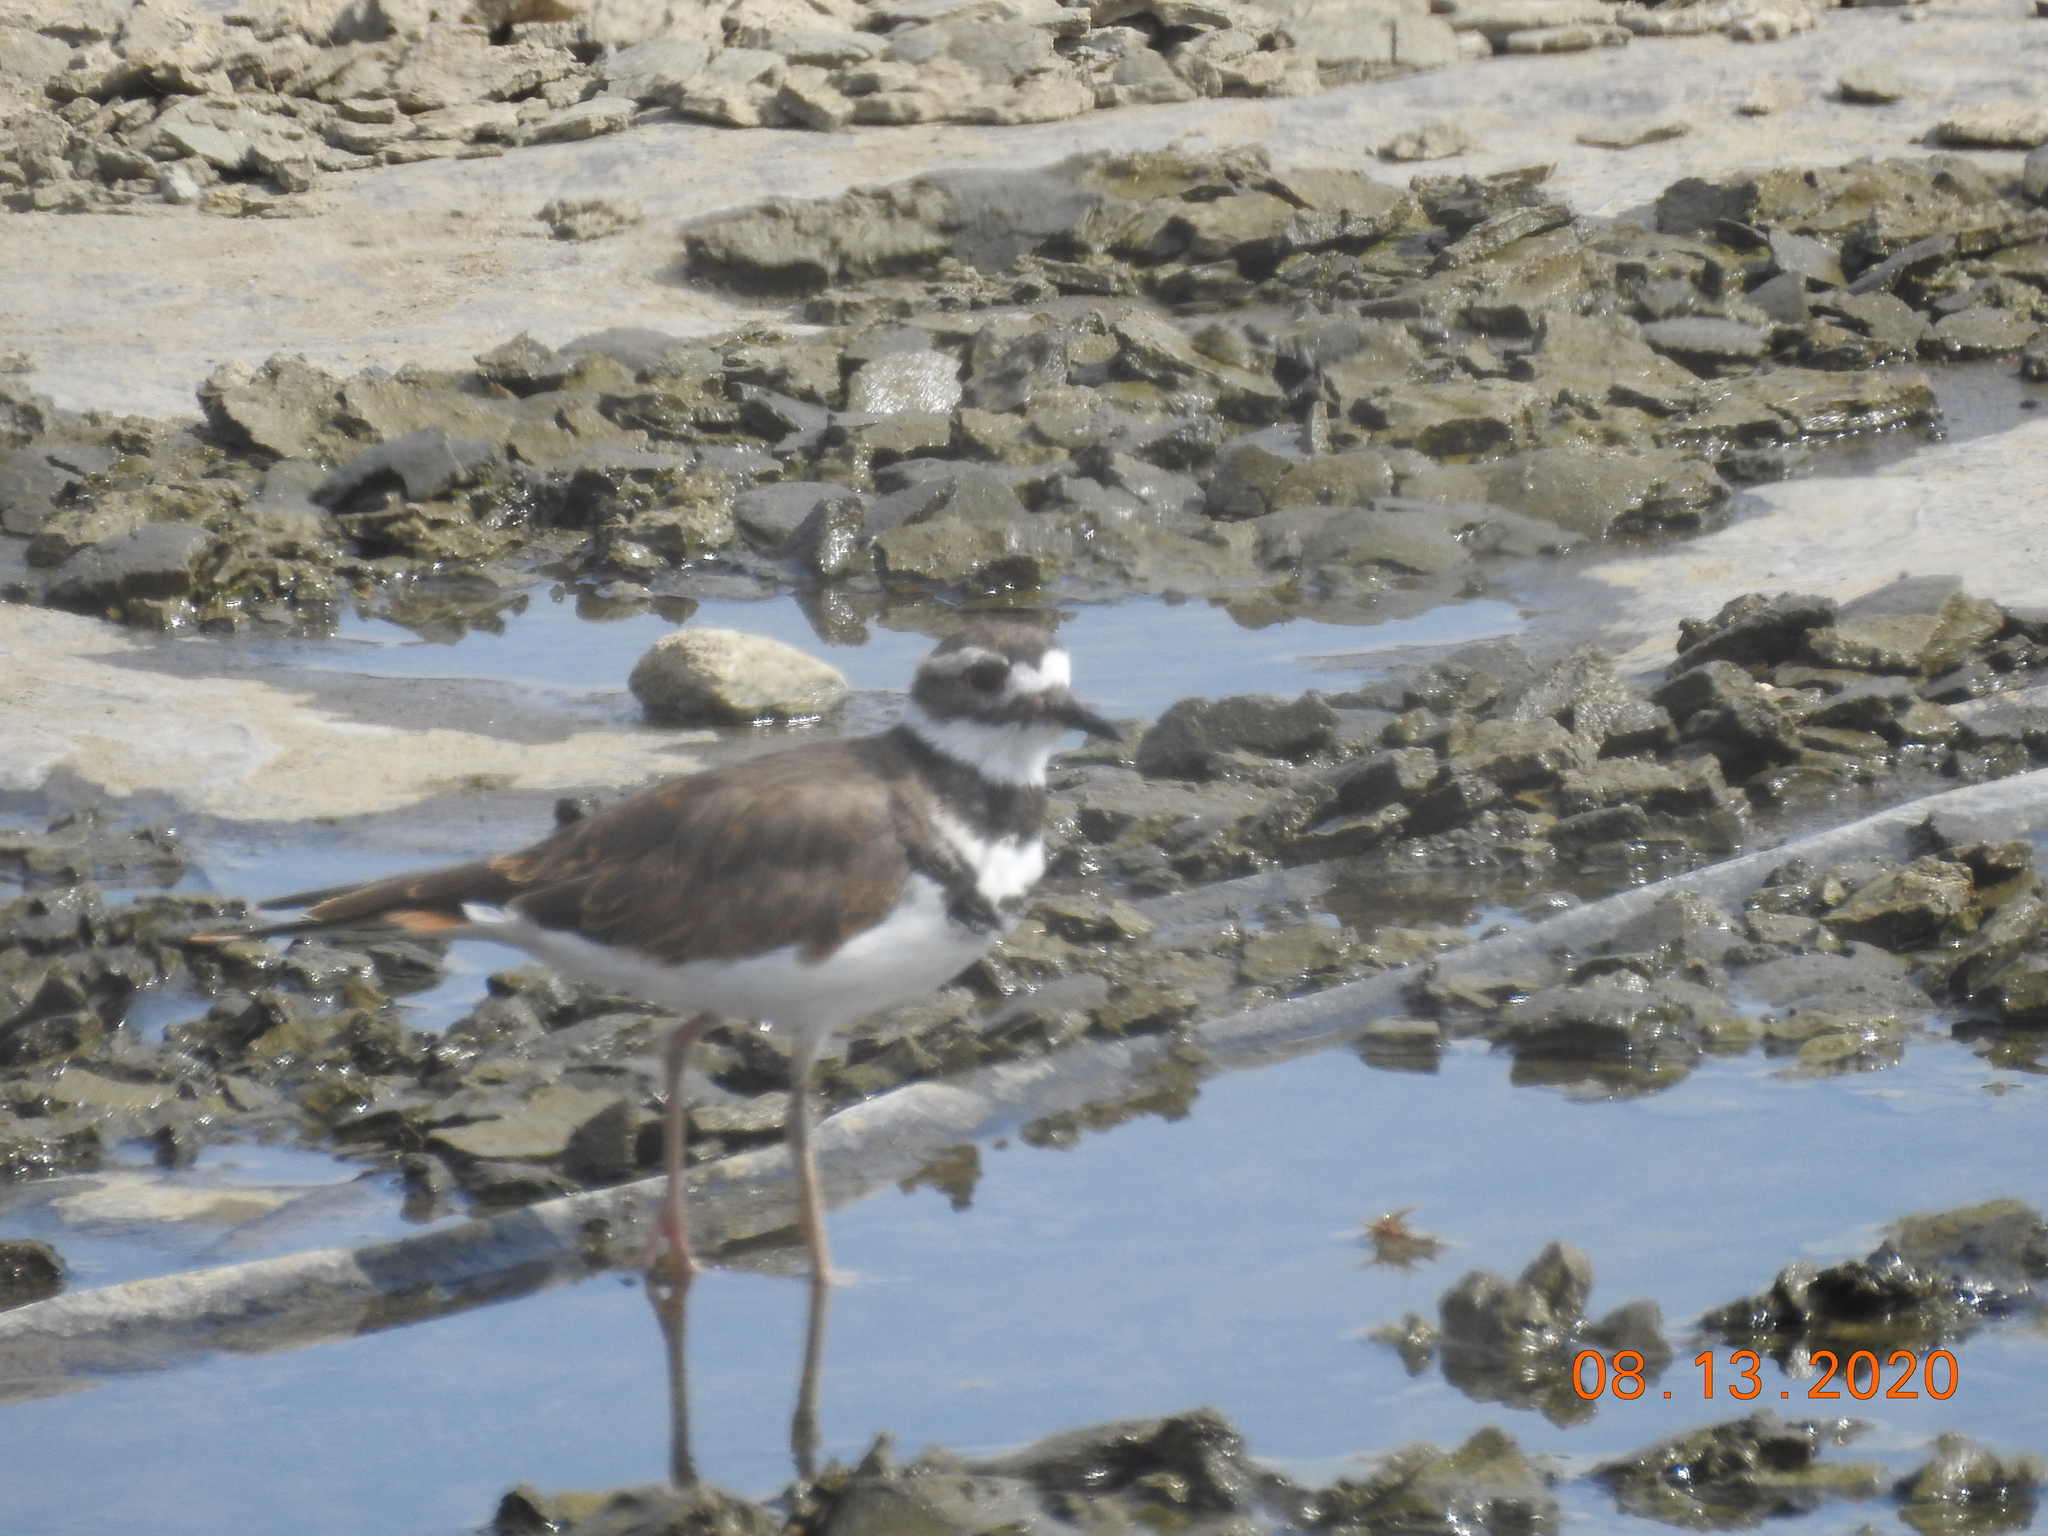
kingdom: Animalia
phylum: Chordata
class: Aves
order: Charadriiformes
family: Charadriidae
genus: Charadrius
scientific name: Charadrius vociferus
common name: Killdeer
